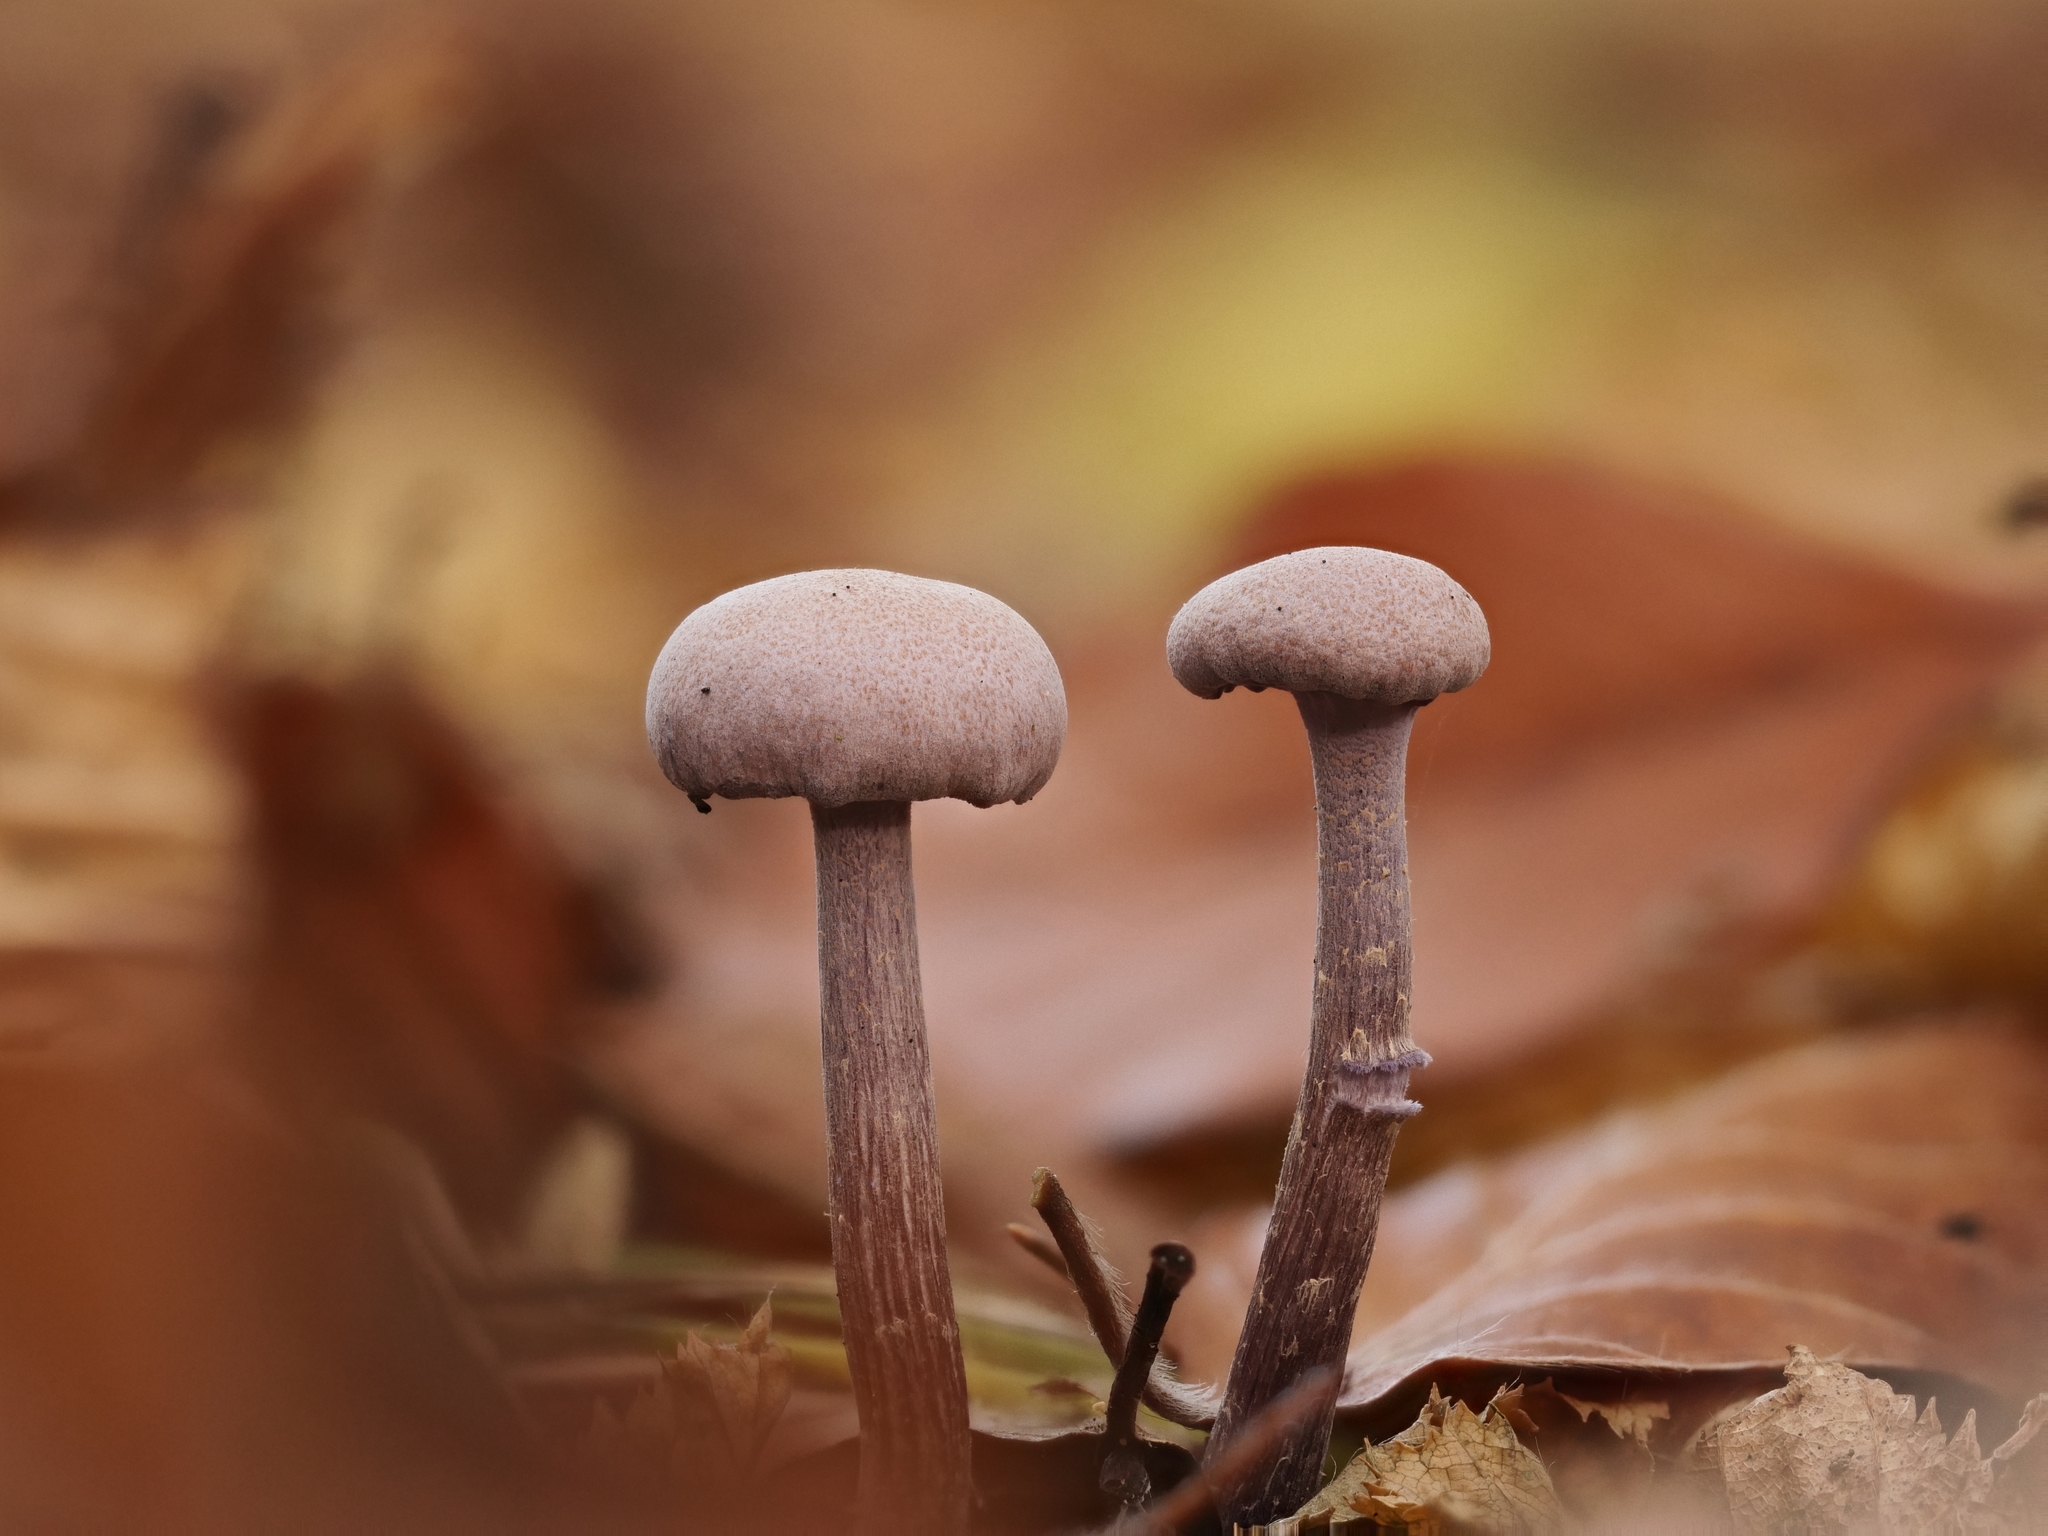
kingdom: Fungi
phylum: Basidiomycota
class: Agaricomycetes
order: Agaricales
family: Hydnangiaceae
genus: Laccaria
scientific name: Laccaria amethystina
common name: Amethyst deceiver
